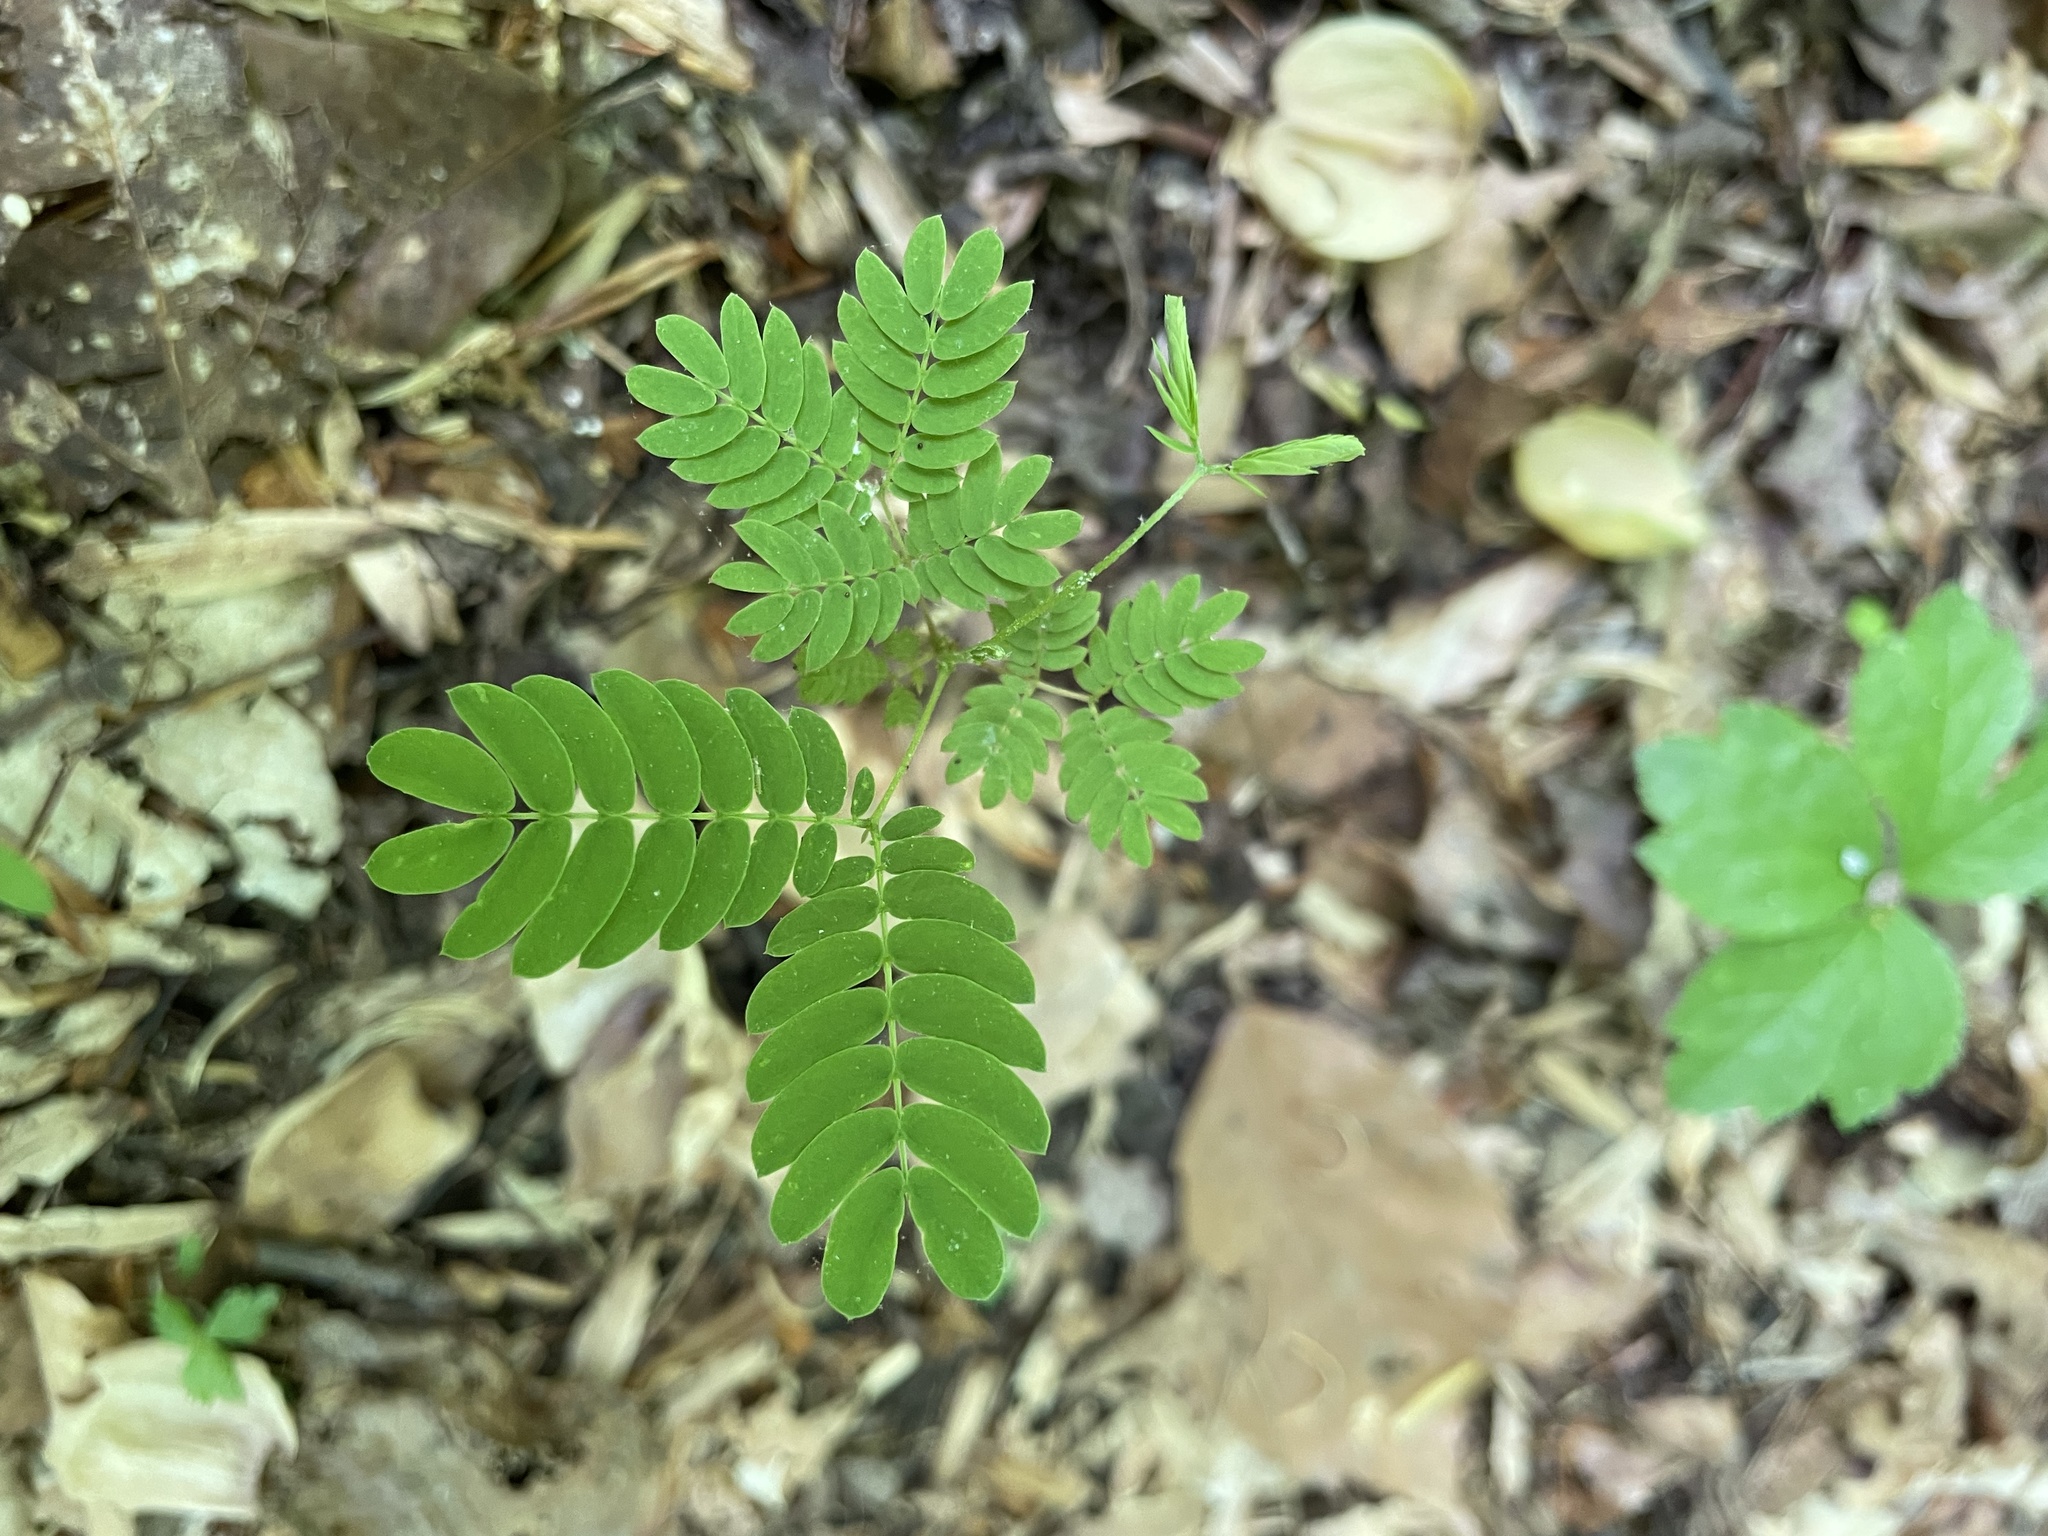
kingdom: Plantae
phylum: Tracheophyta
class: Magnoliopsida
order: Fabales
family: Fabaceae
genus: Albizia
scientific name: Albizia julibrissin
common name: Silktree
